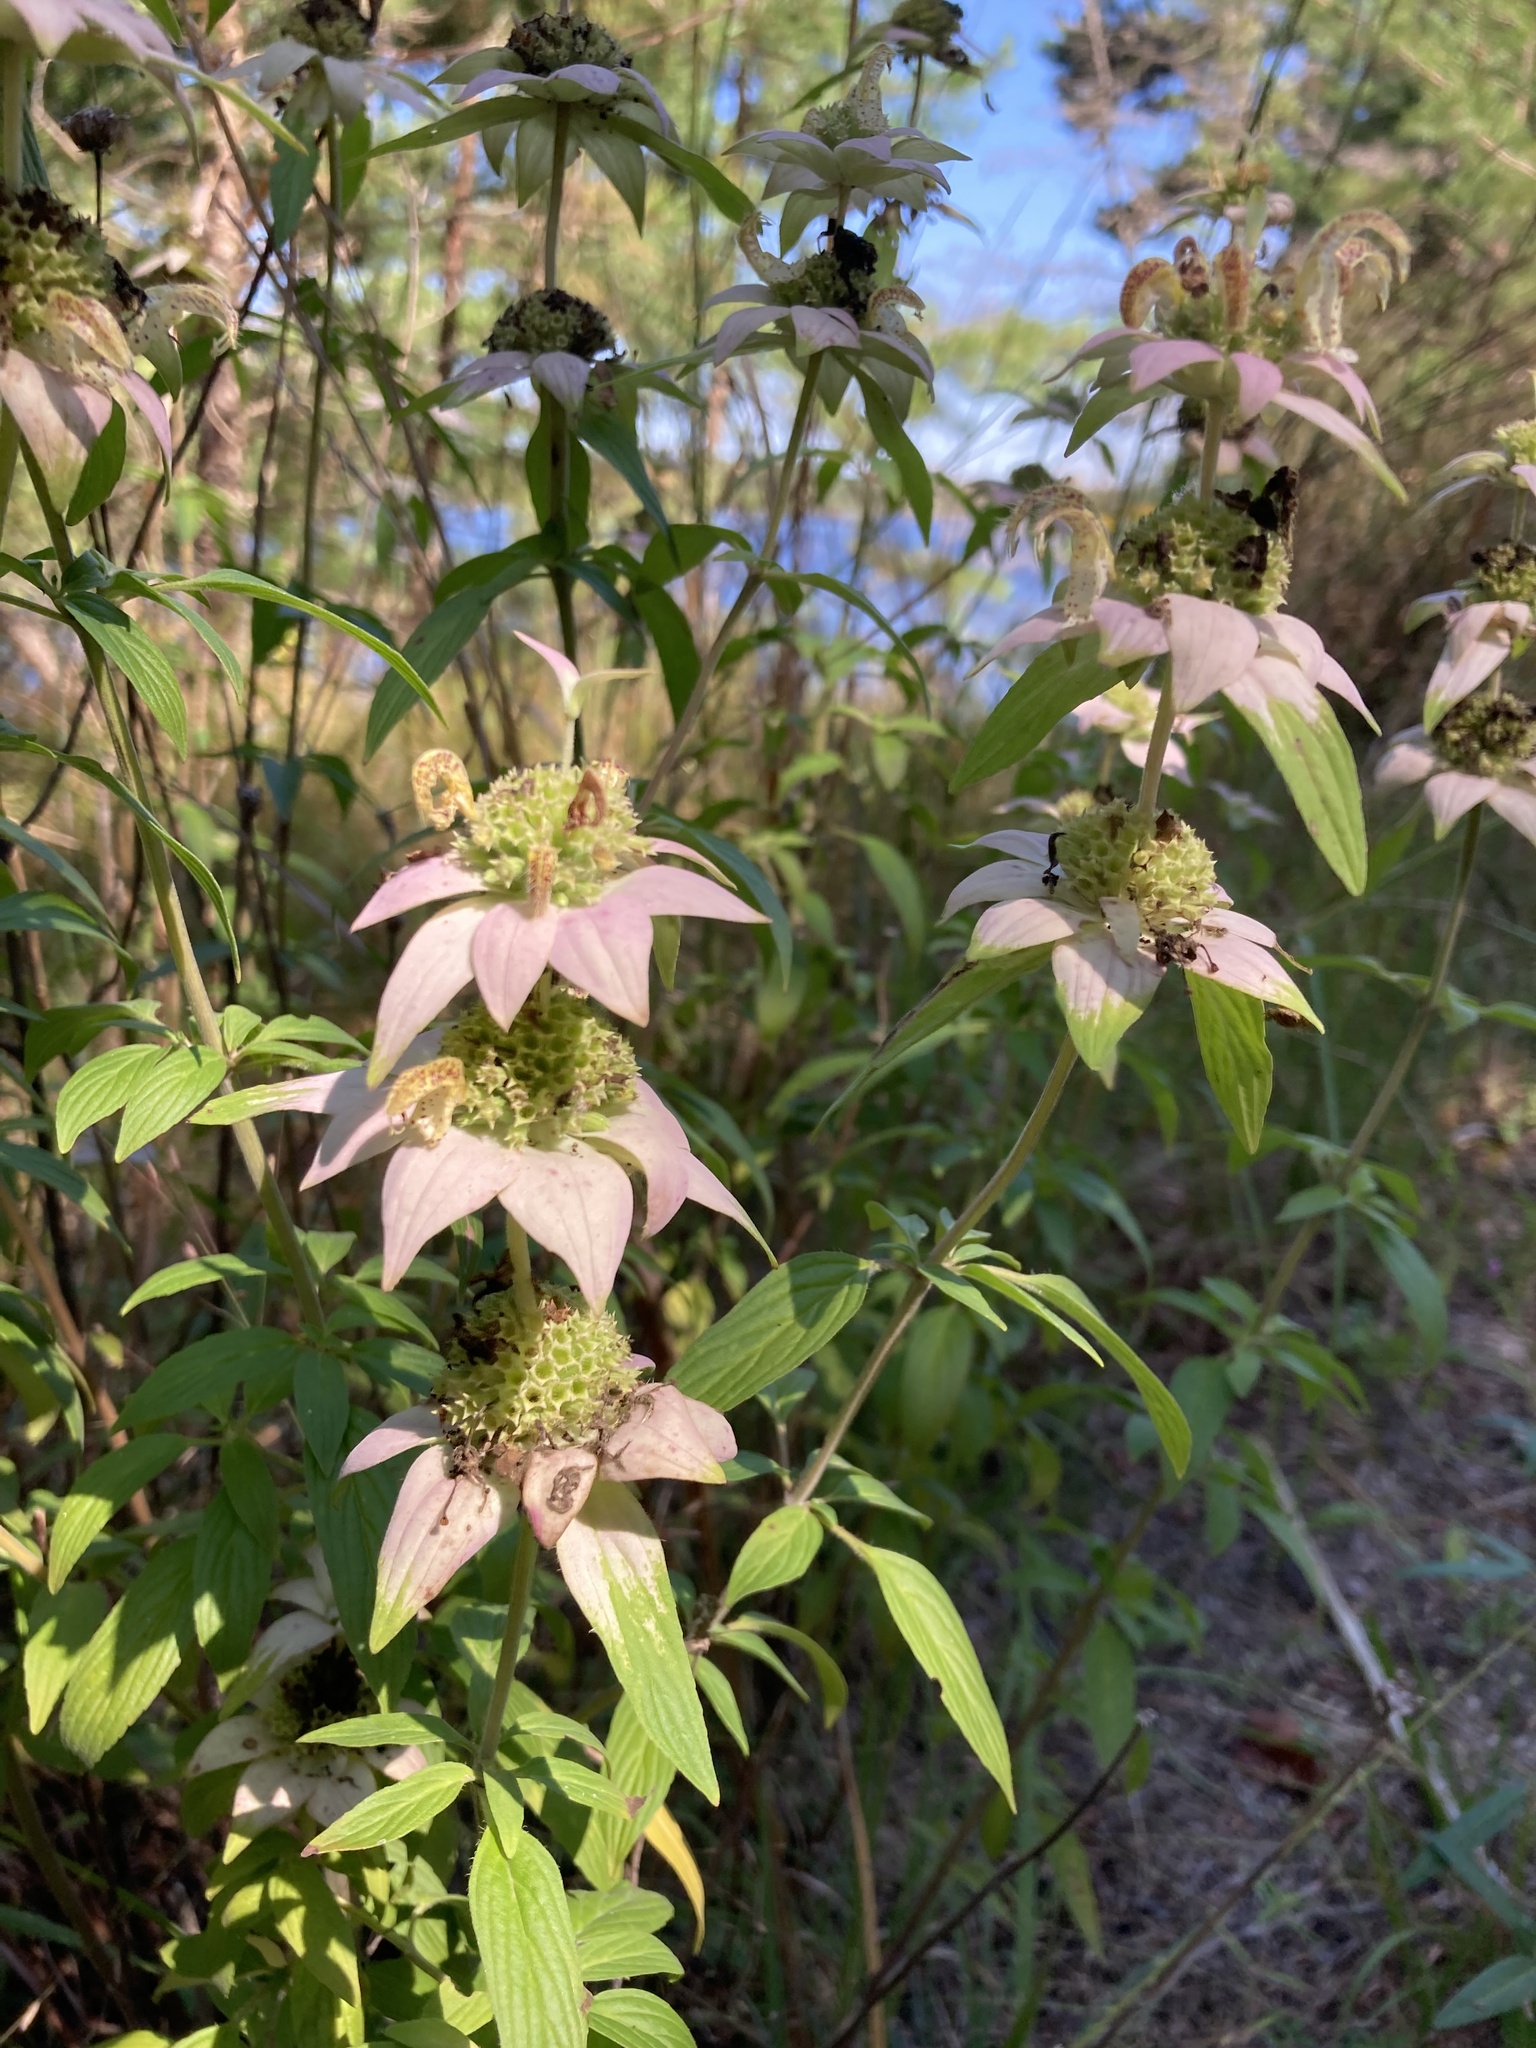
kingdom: Plantae
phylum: Tracheophyta
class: Magnoliopsida
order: Lamiales
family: Lamiaceae
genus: Monarda
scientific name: Monarda punctata
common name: Dotted monarda
